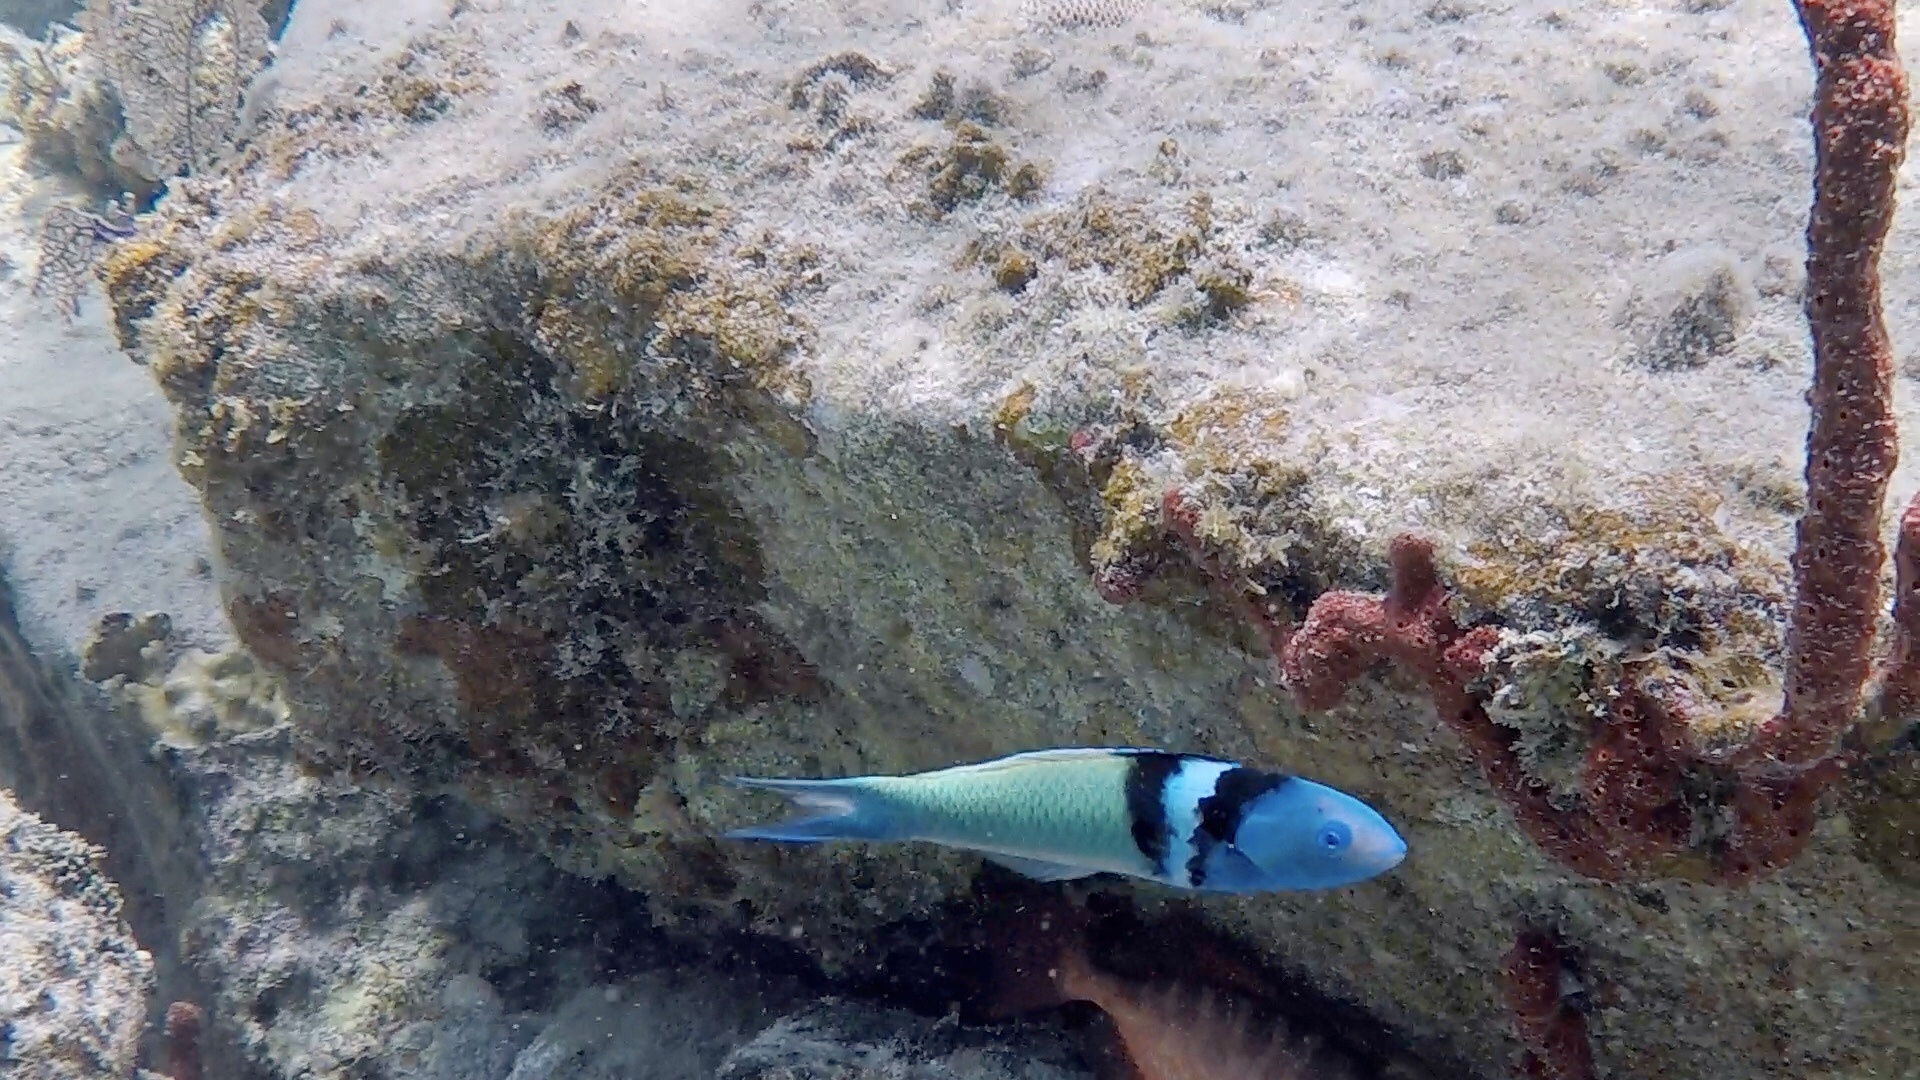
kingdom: Animalia
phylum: Chordata
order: Perciformes
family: Labridae
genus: Thalassoma
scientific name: Thalassoma bifasciatum
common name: Bluehead wrasse
